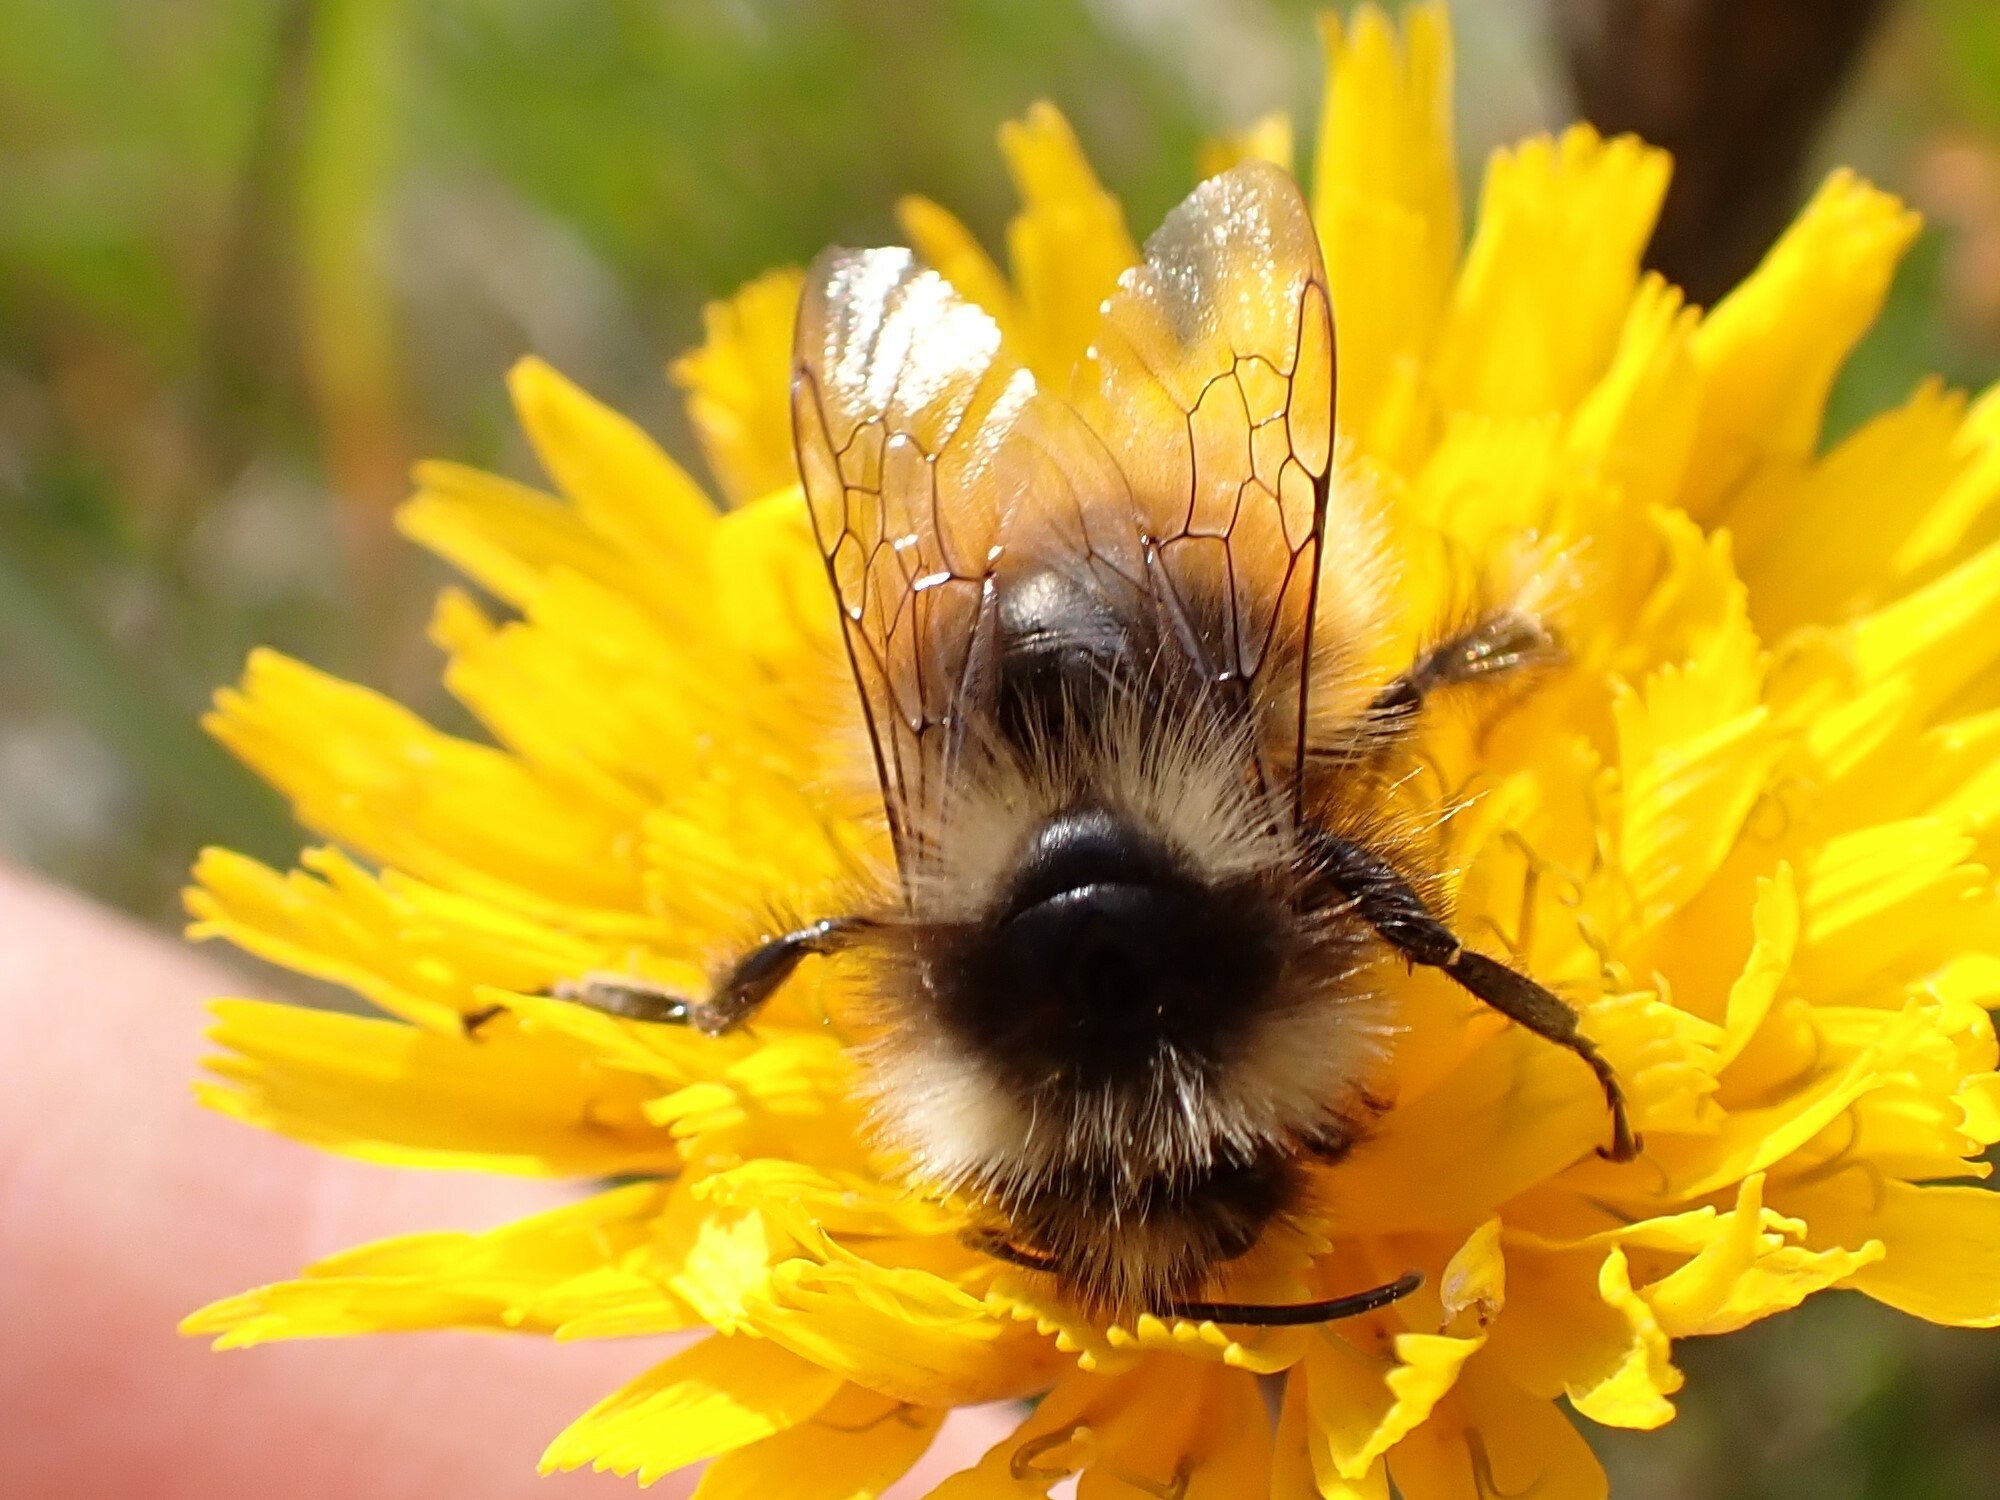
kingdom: Animalia
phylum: Arthropoda
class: Insecta
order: Hymenoptera
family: Apidae
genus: Bombus
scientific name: Bombus lapponicus
